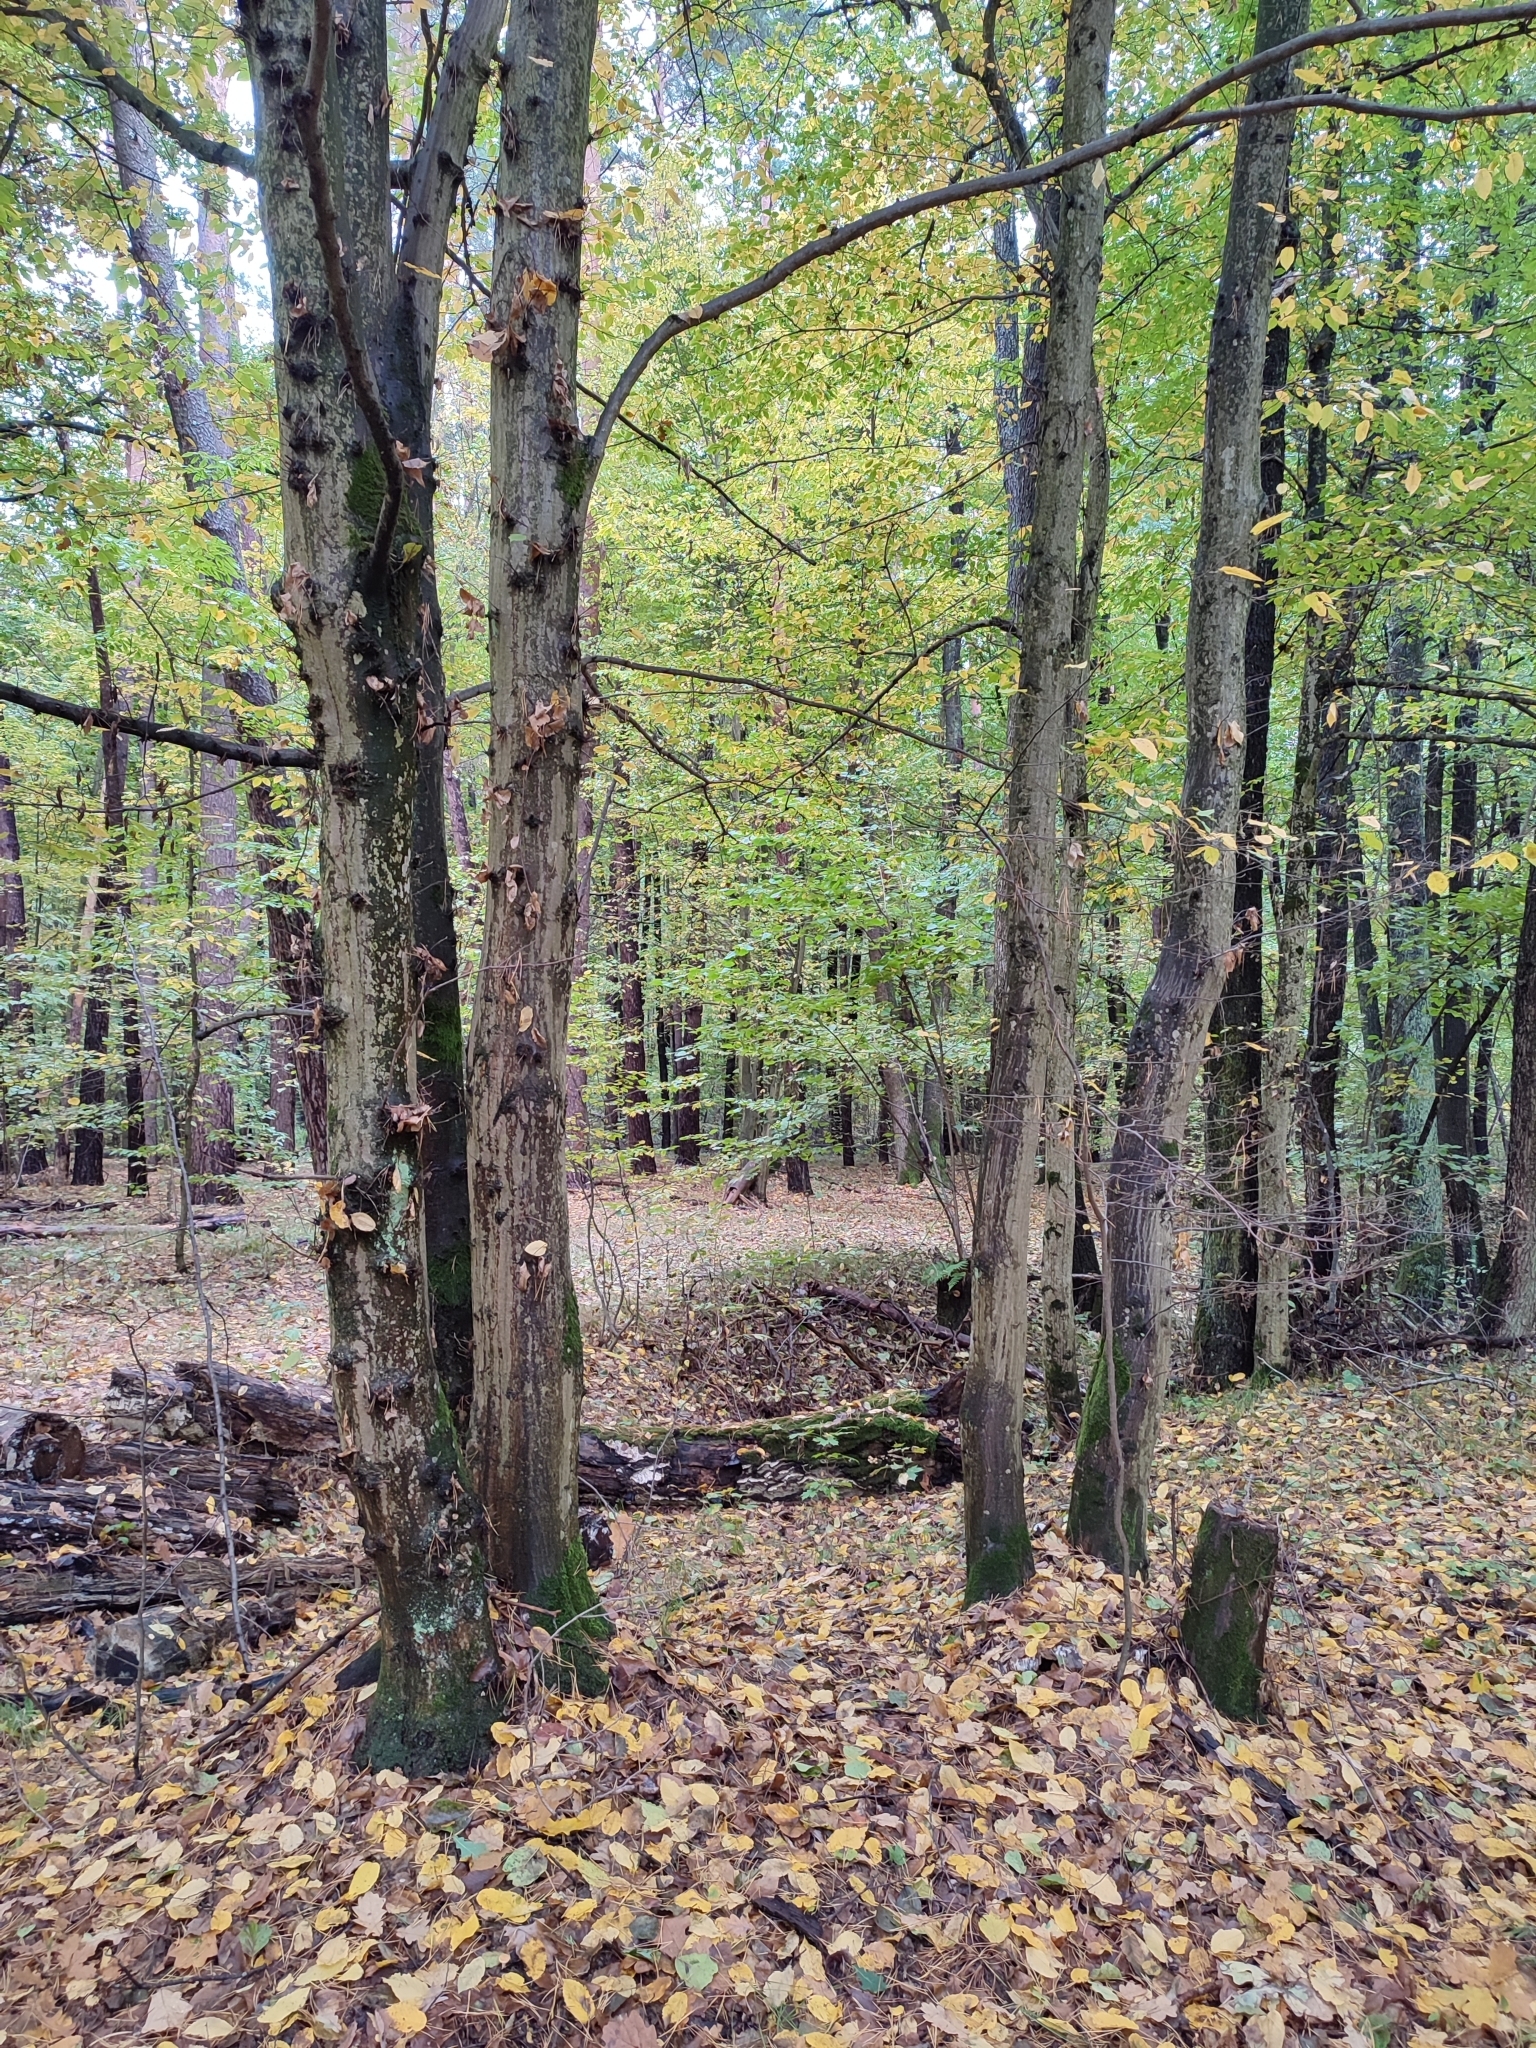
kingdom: Plantae
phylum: Tracheophyta
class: Magnoliopsida
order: Fagales
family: Betulaceae
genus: Carpinus
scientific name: Carpinus betulus
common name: Hornbeam
